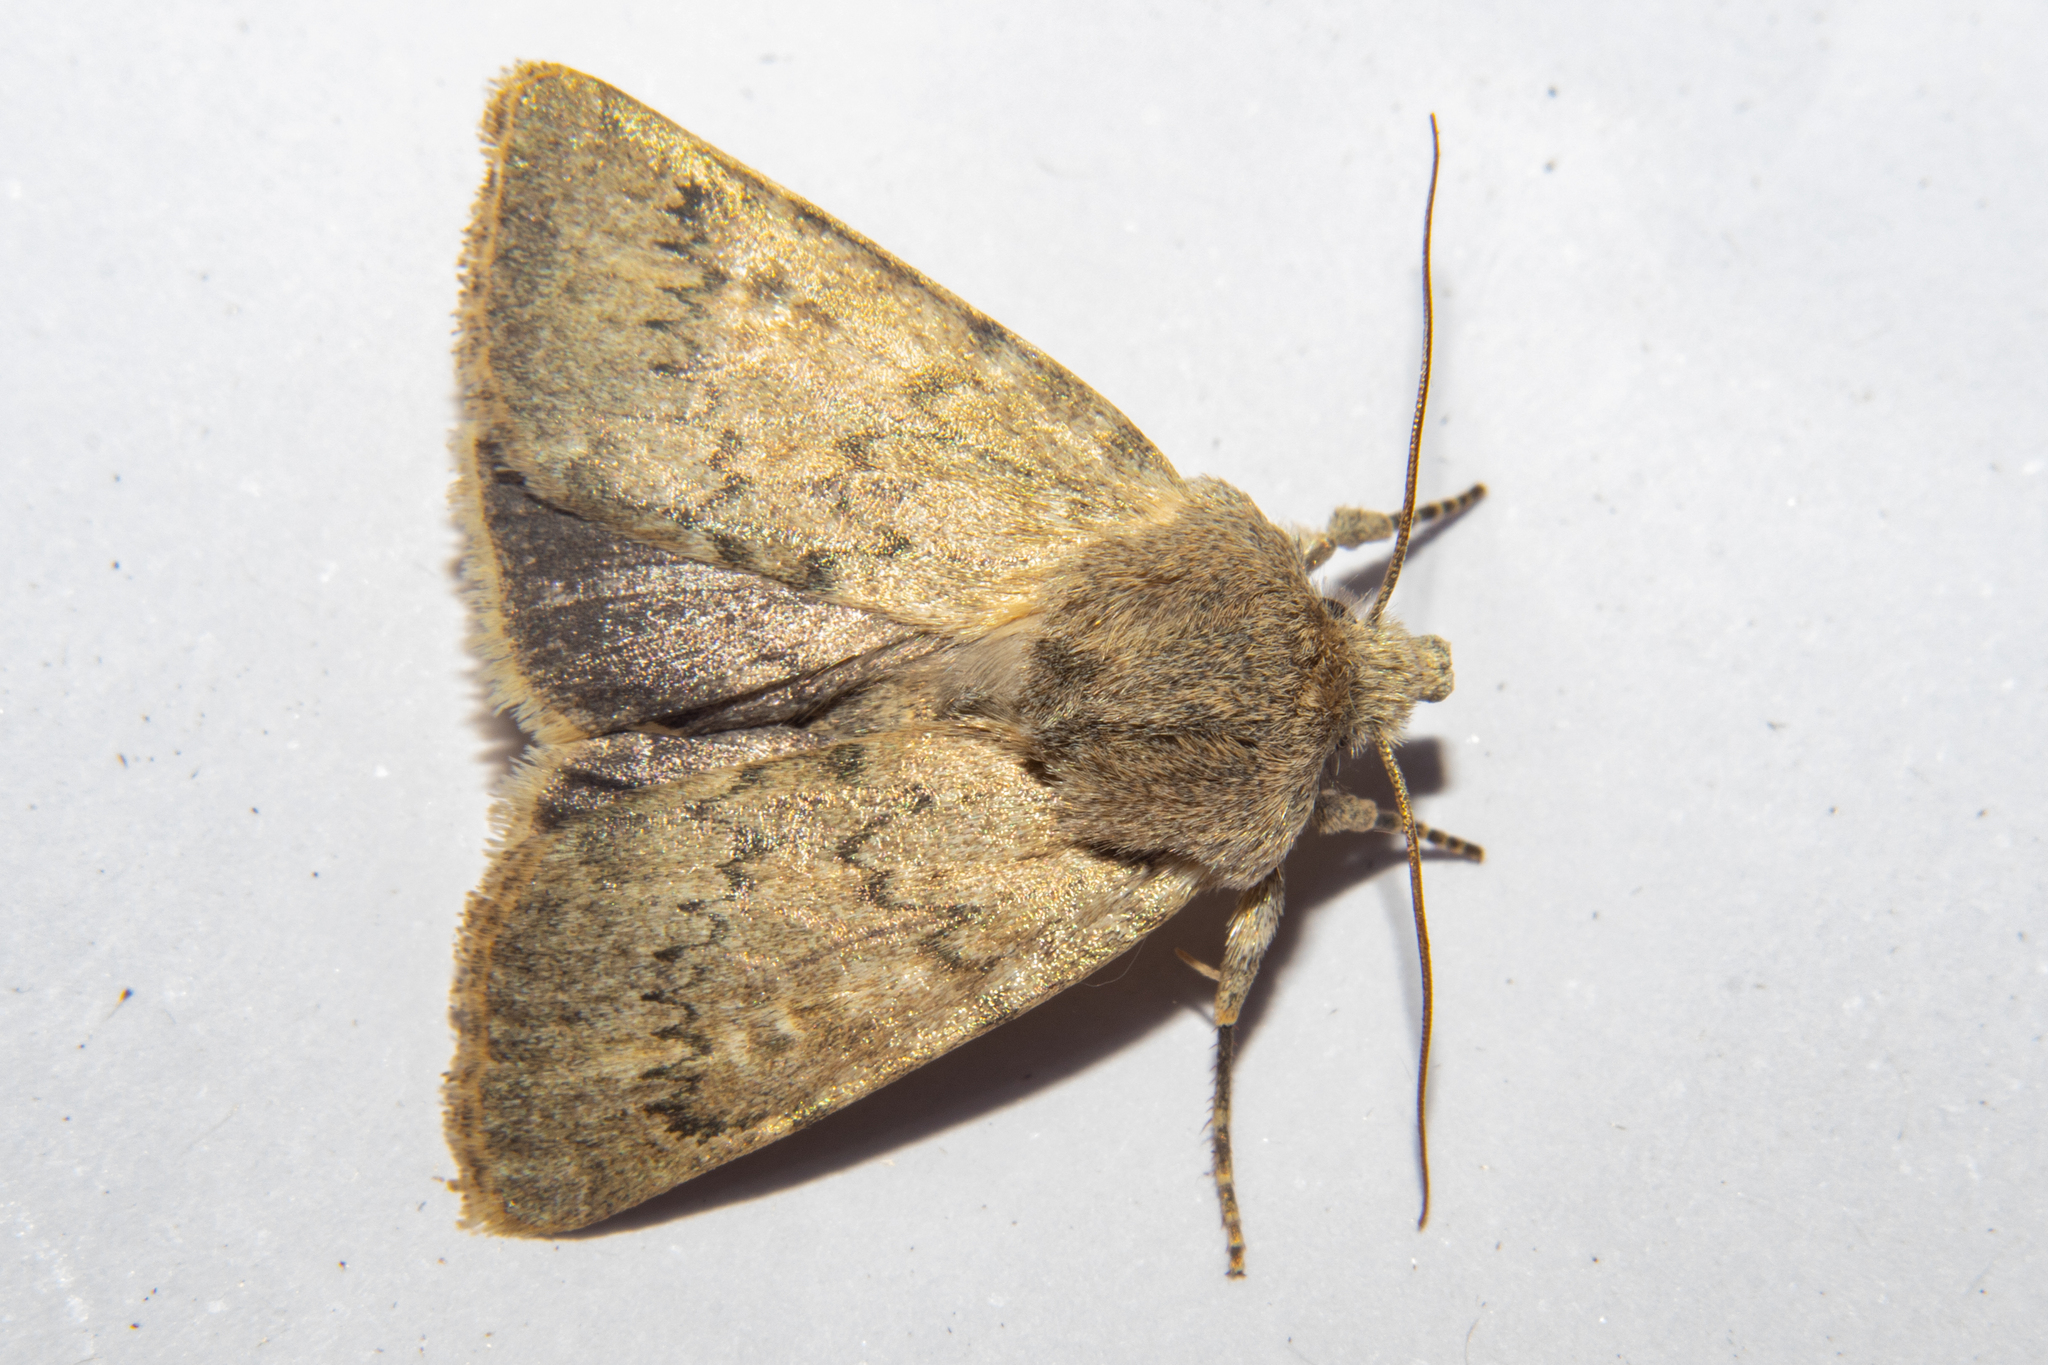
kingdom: Animalia
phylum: Arthropoda
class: Insecta
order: Lepidoptera
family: Noctuidae
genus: Physetica
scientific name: Physetica caerulea
